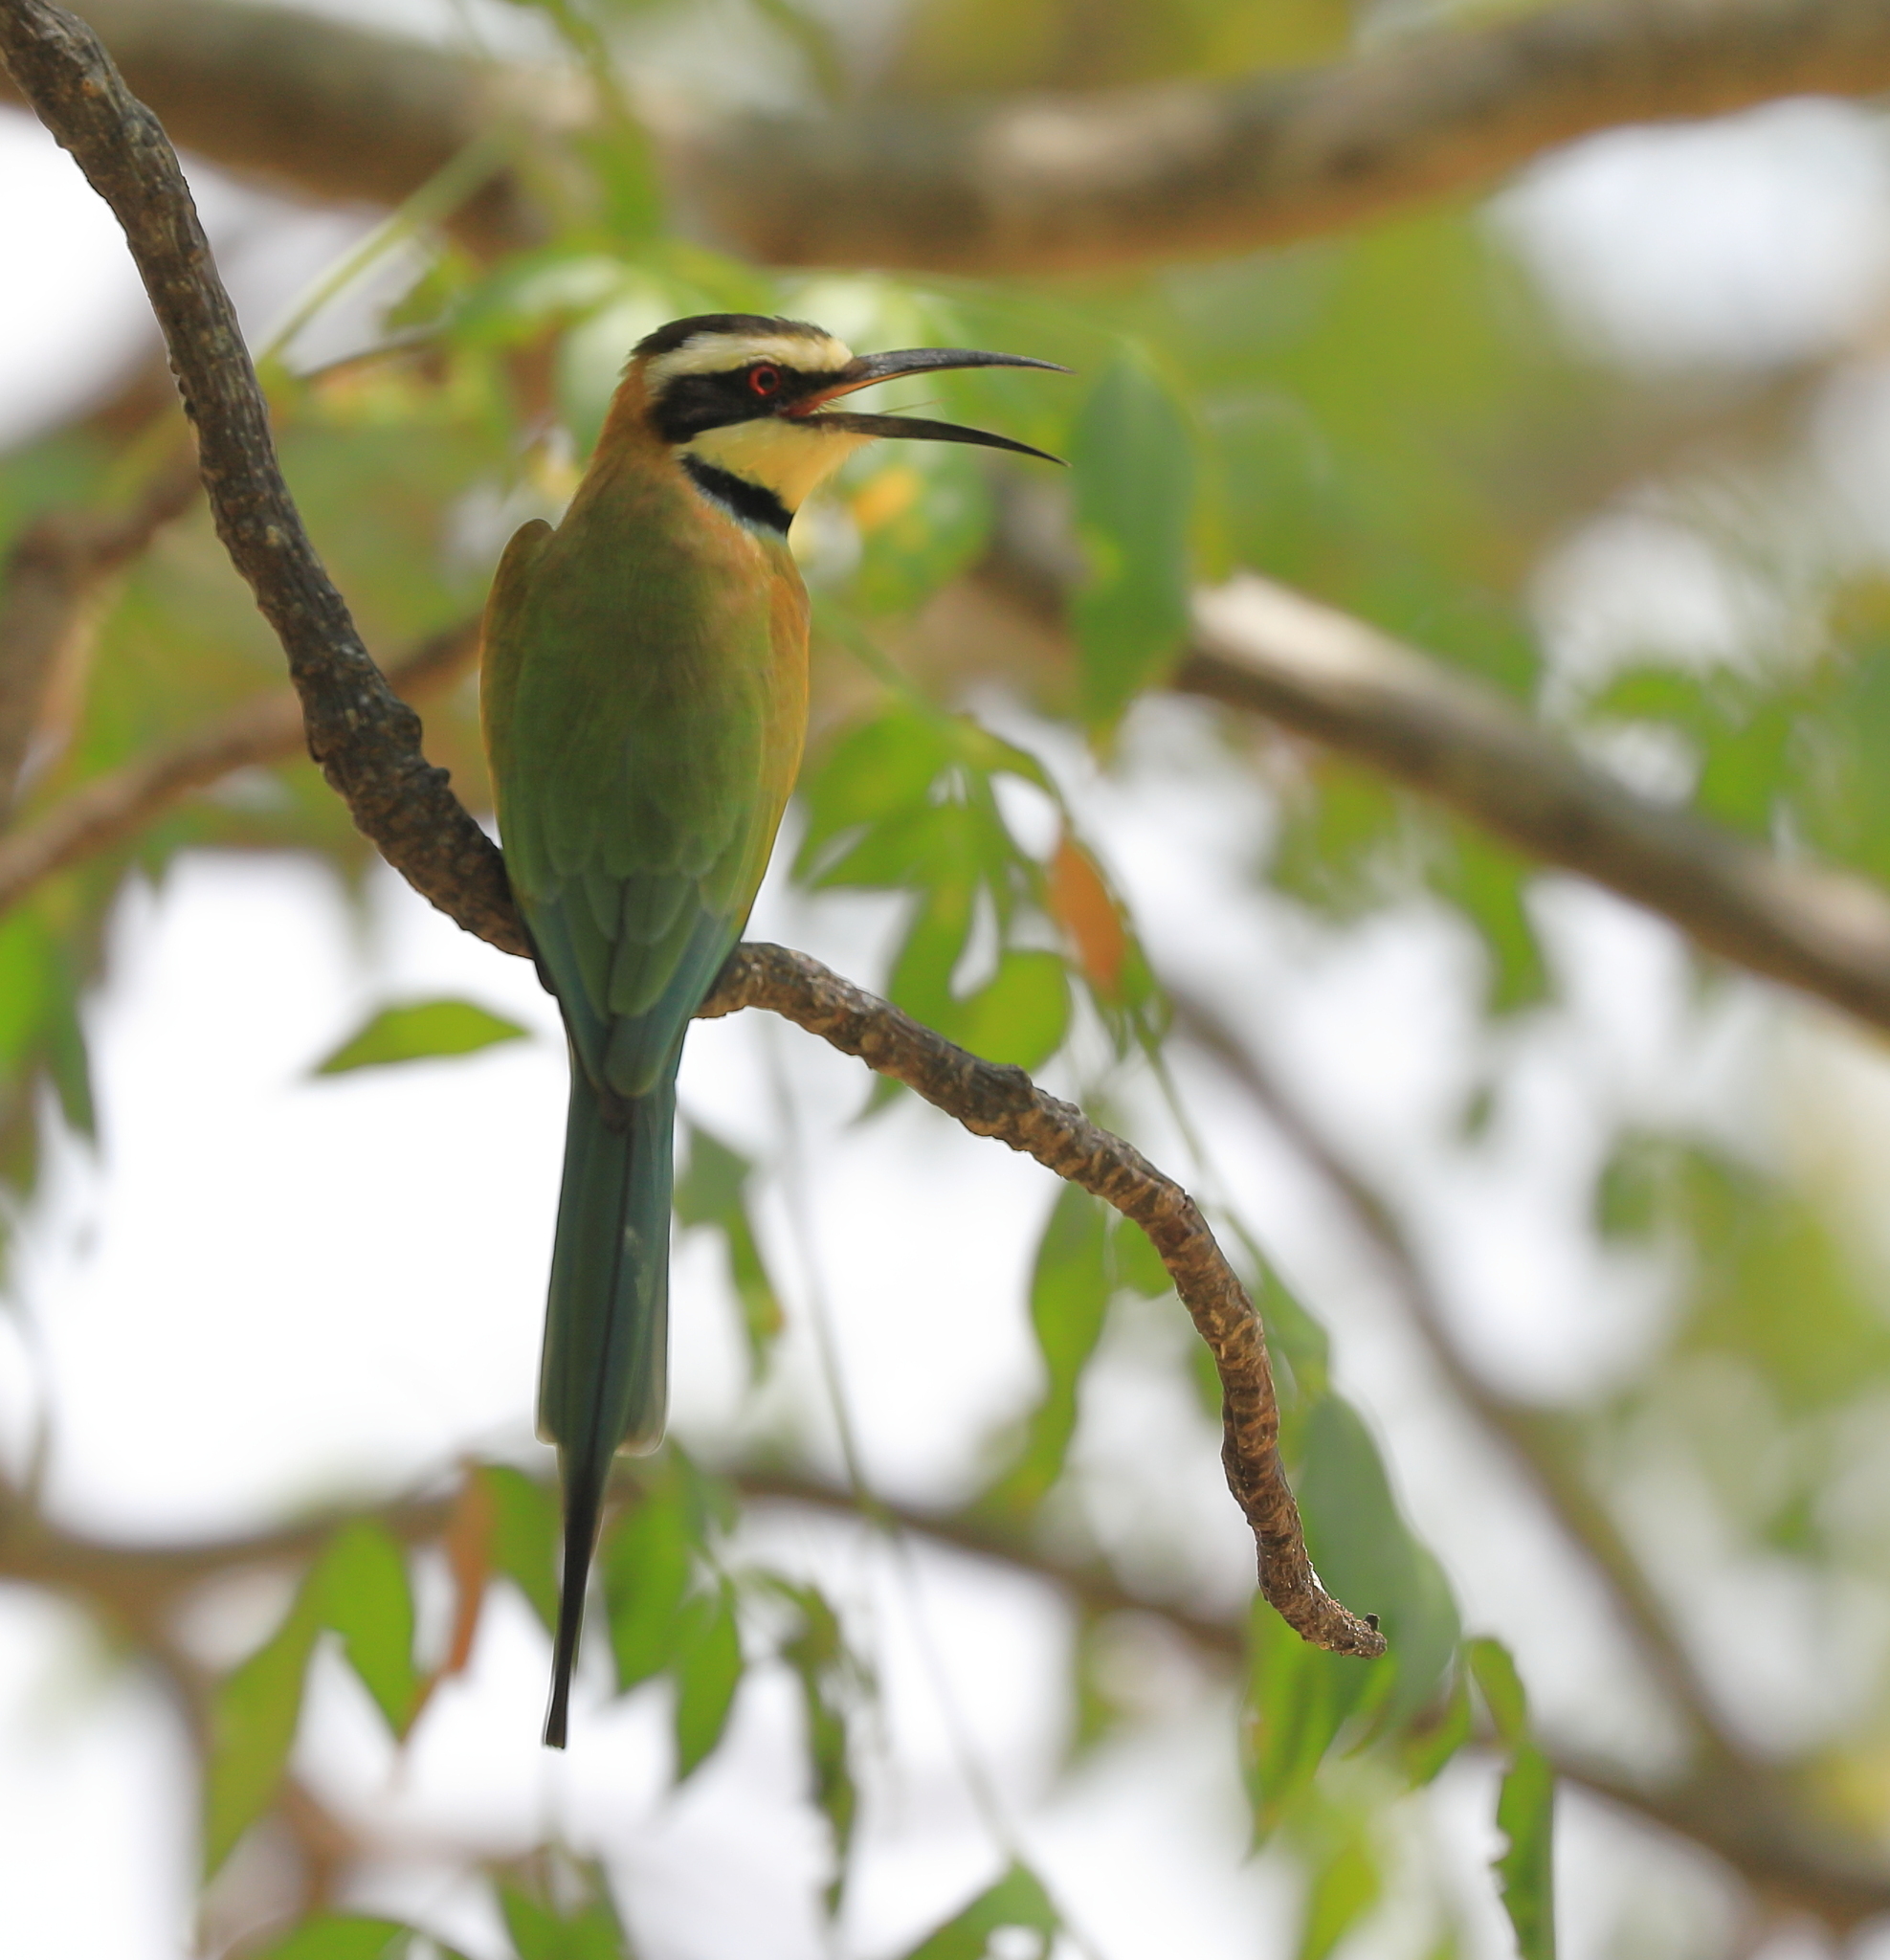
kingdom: Animalia
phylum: Chordata
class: Aves
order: Coraciiformes
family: Meropidae
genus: Merops
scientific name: Merops albicollis
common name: White-throated bee-eater
